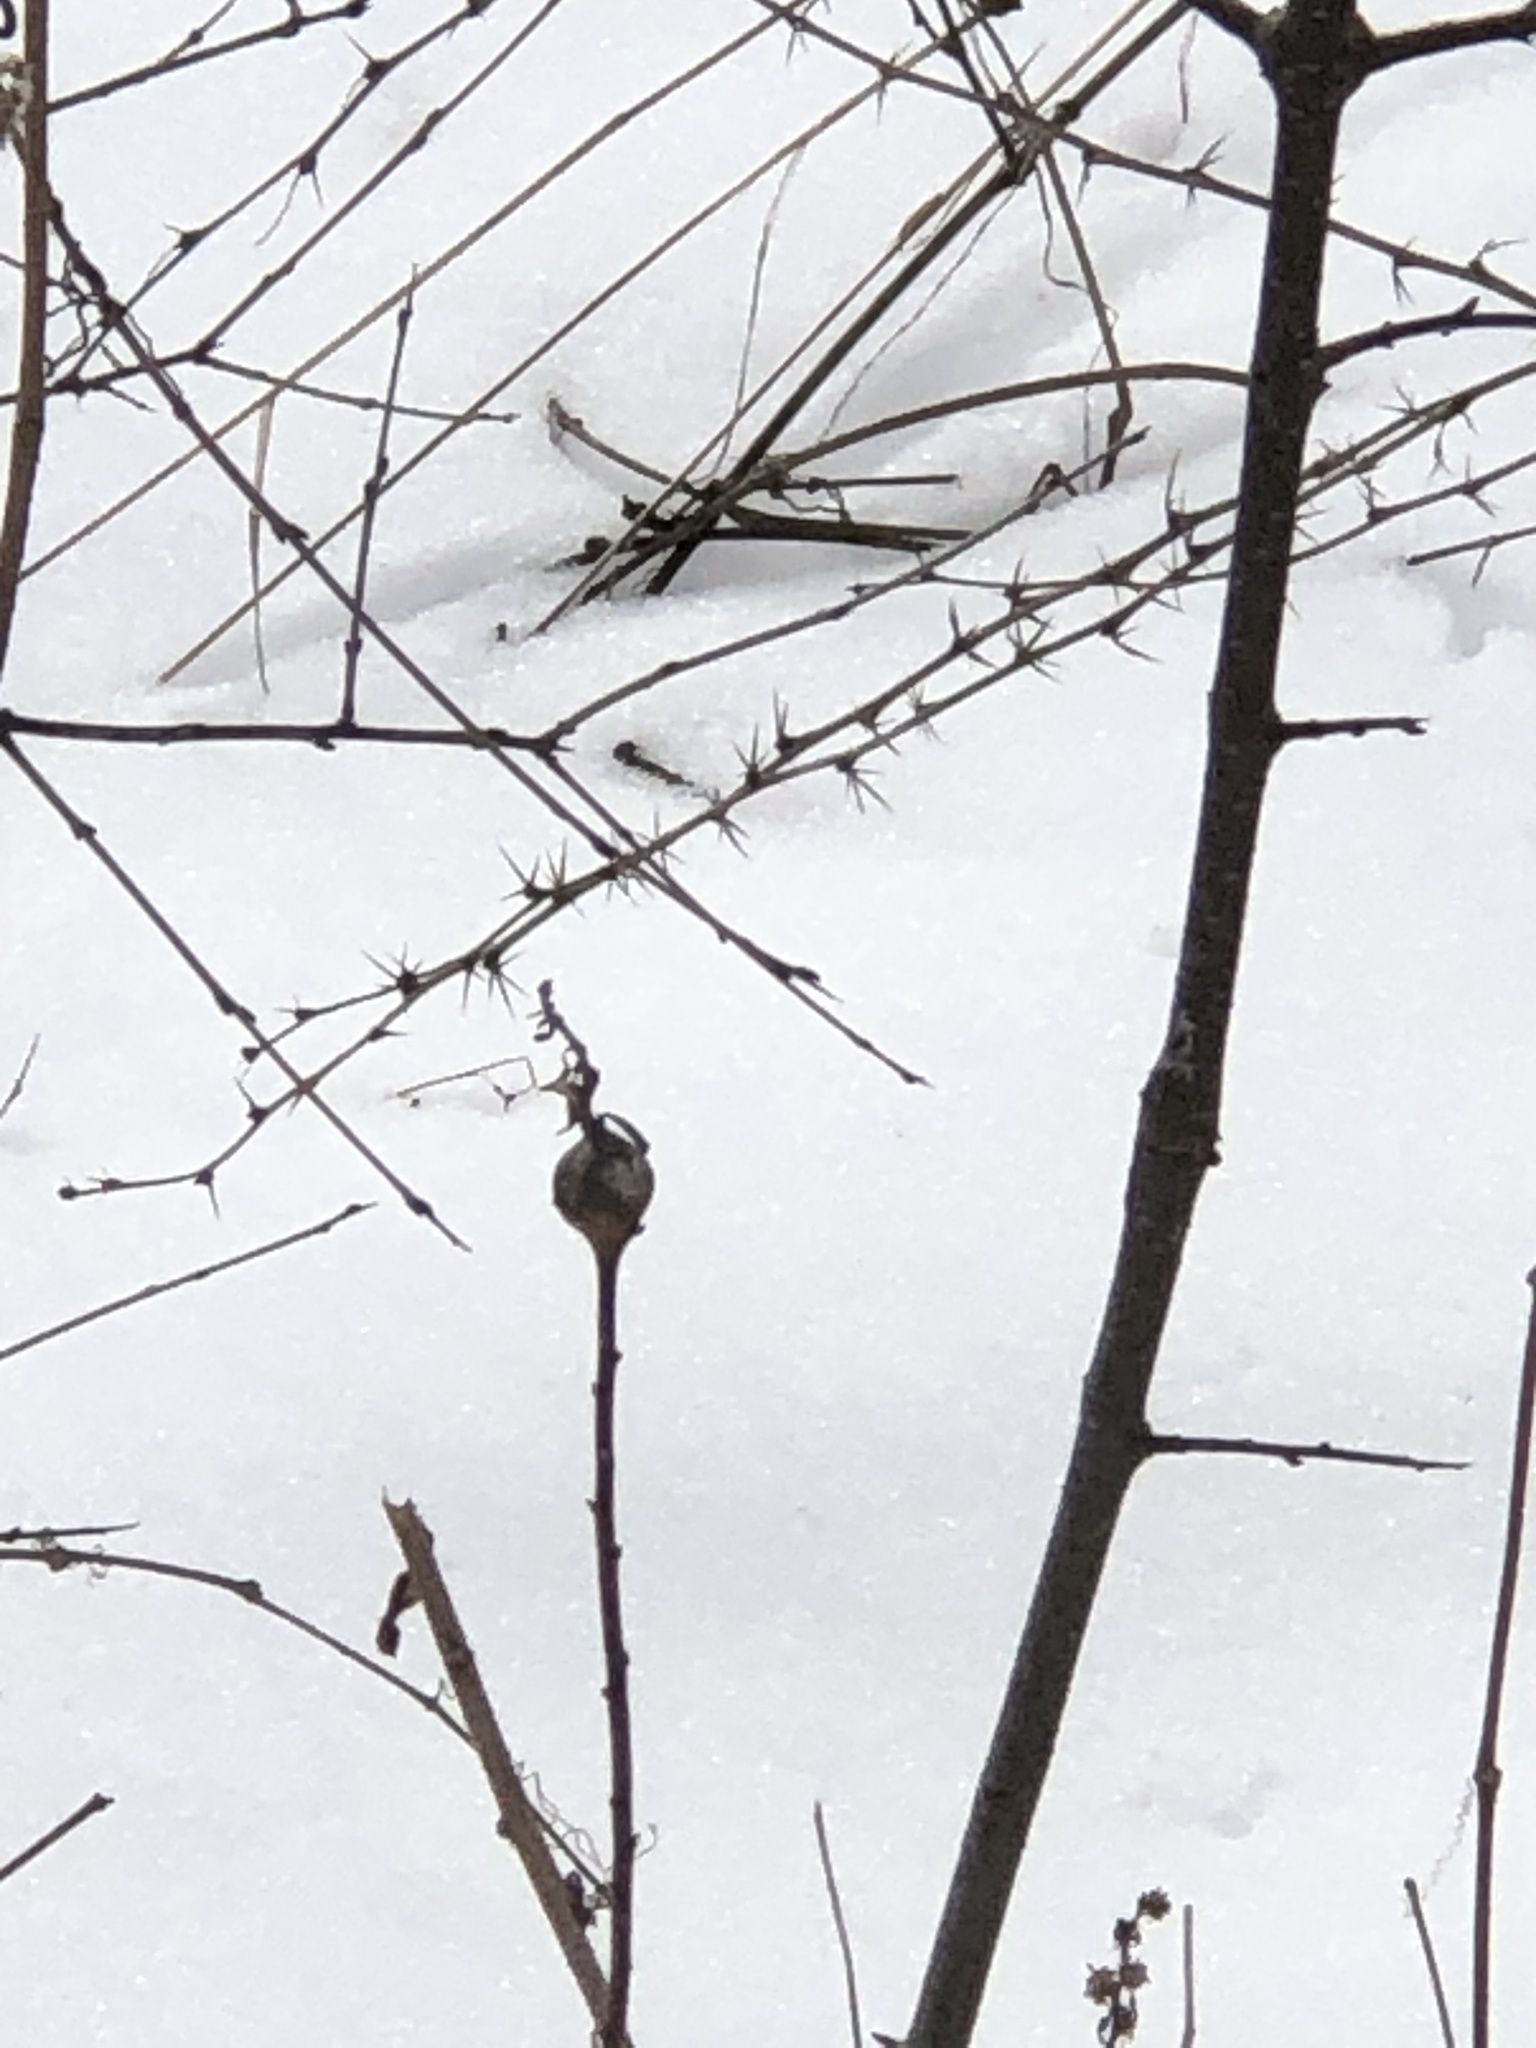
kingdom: Animalia
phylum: Arthropoda
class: Insecta
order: Diptera
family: Tephritidae
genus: Eurosta
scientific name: Eurosta solidaginis
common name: Goldenrod gall fly
